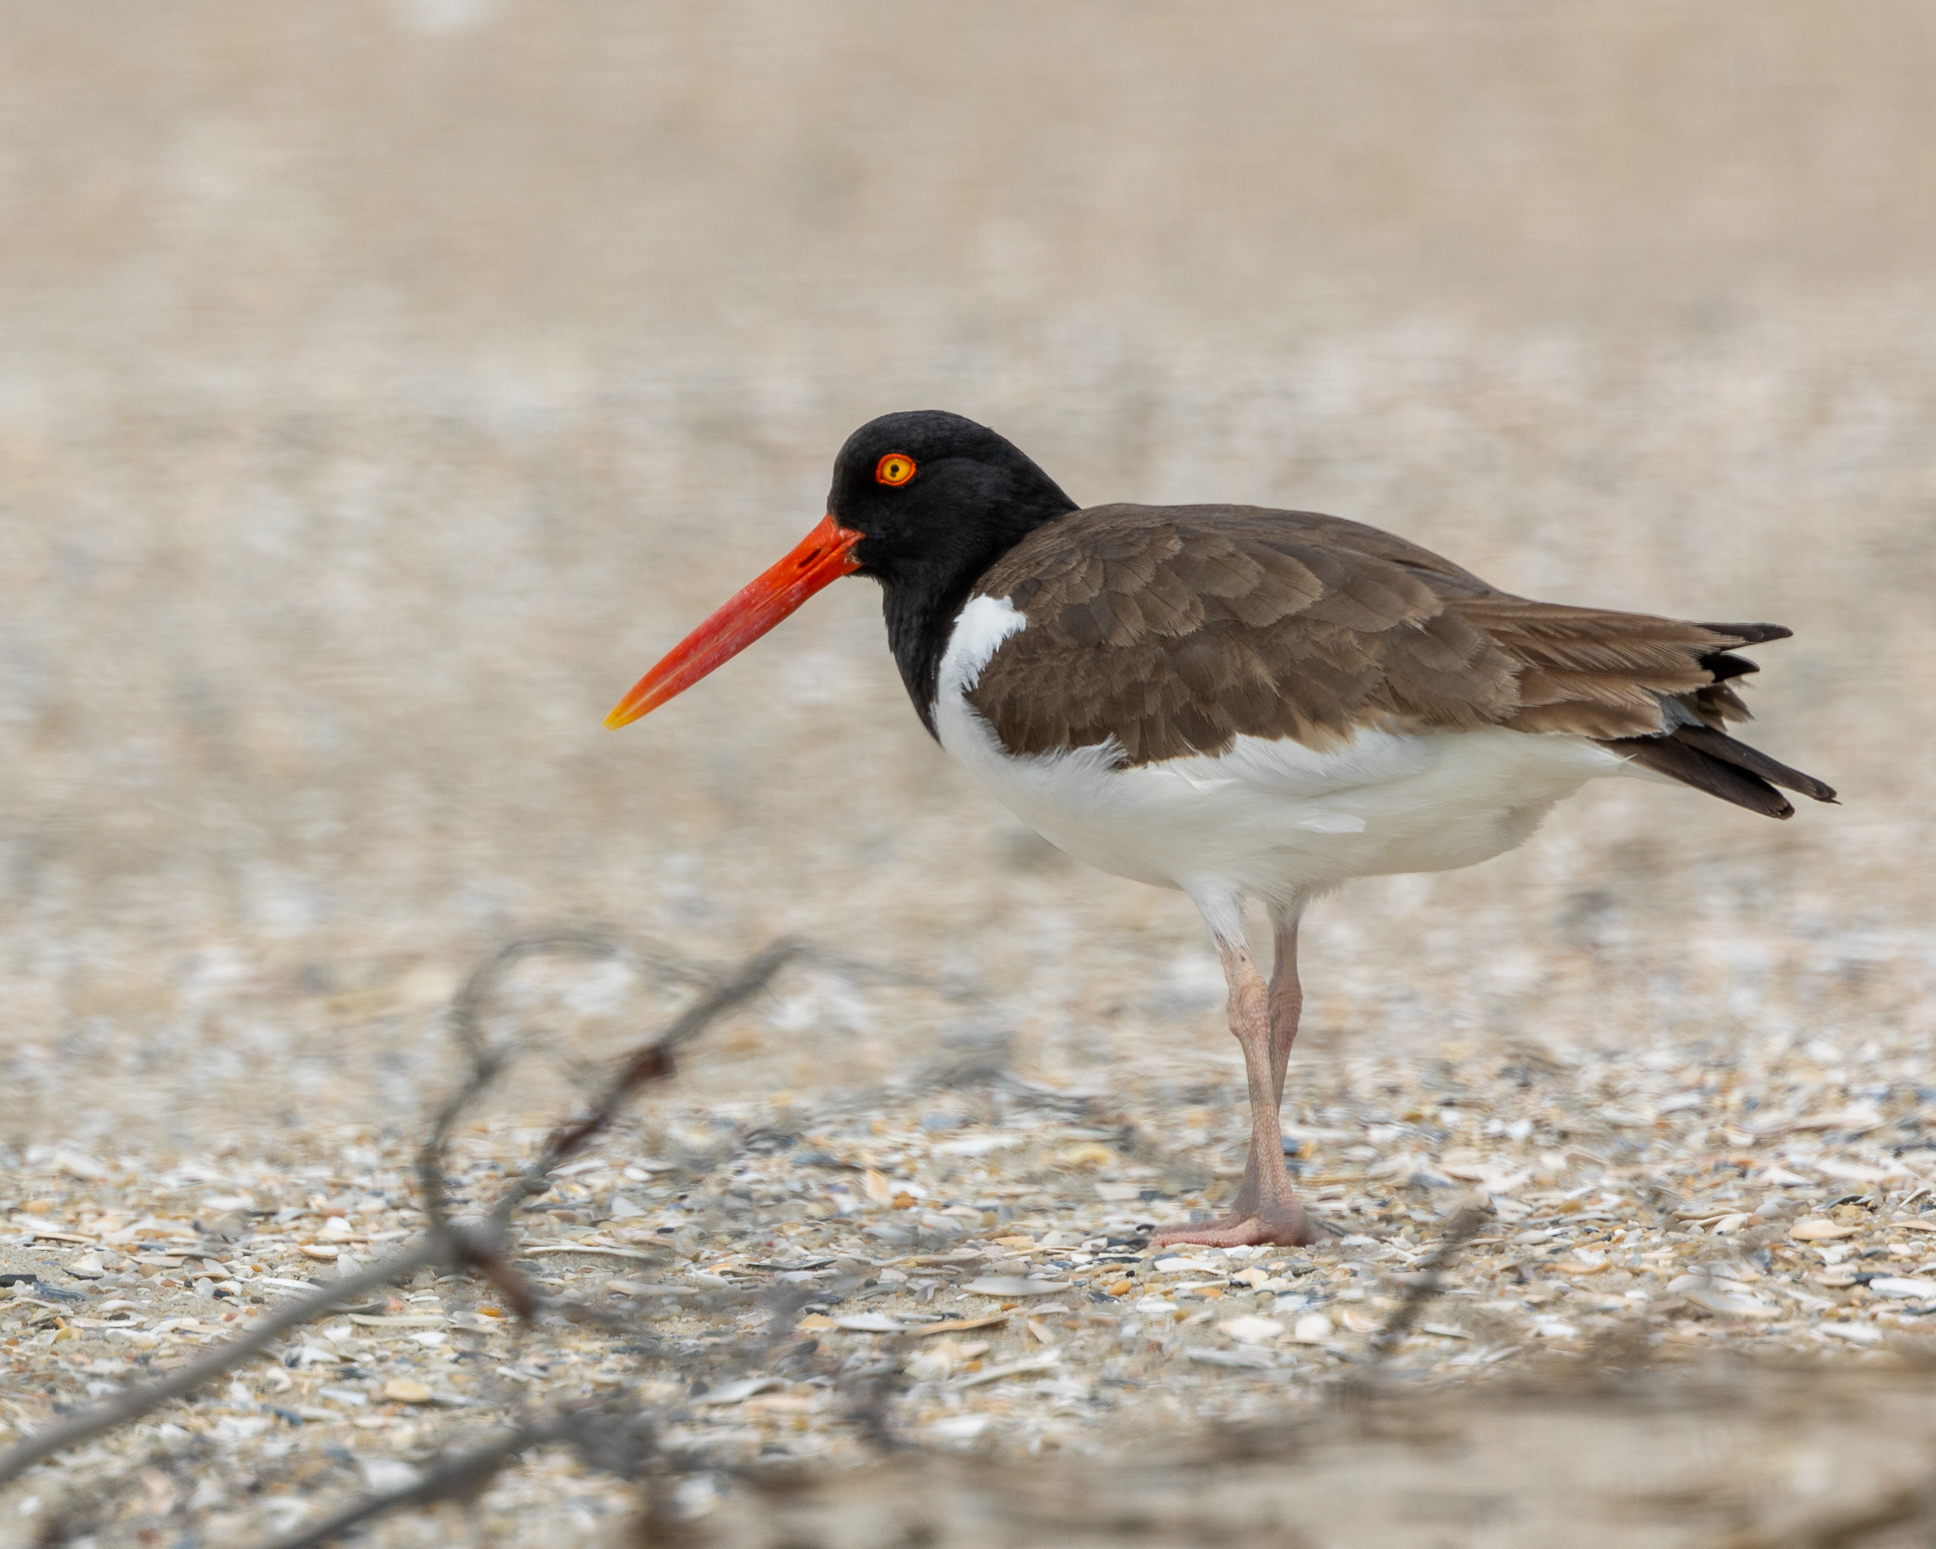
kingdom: Animalia
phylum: Chordata
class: Aves
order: Charadriiformes
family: Haematopodidae
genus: Haematopus
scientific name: Haematopus palliatus
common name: American oystercatcher
